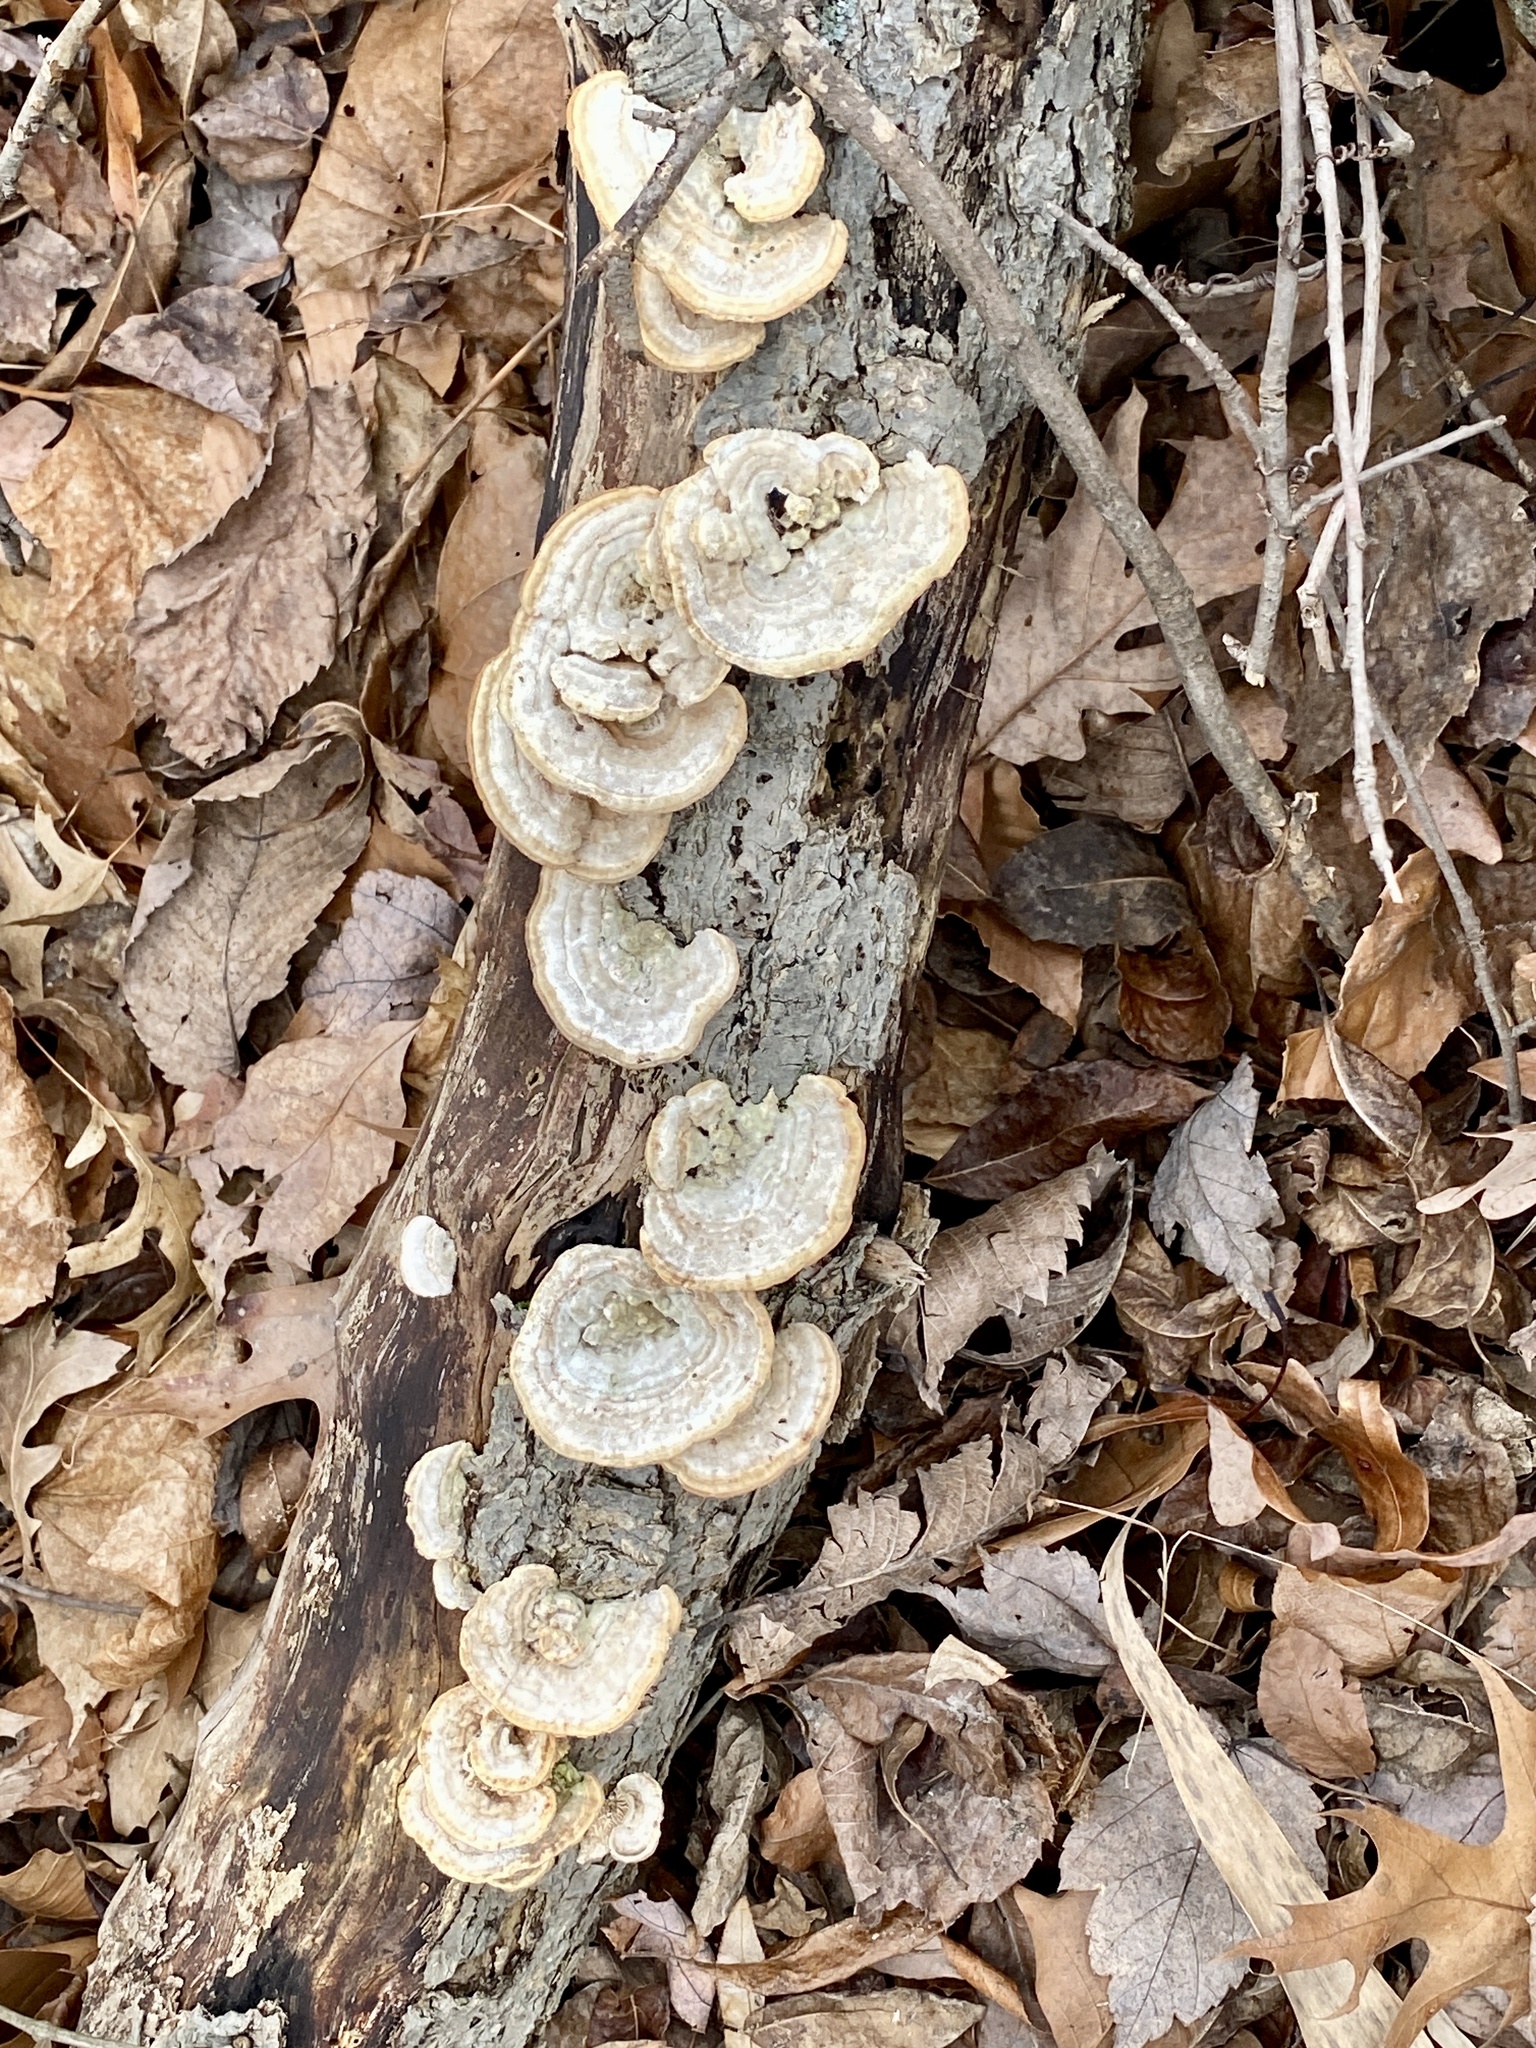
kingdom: Fungi
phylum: Basidiomycota
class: Agaricomycetes
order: Polyporales
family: Polyporaceae
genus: Lenzites
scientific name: Lenzites betulinus
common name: Birch mazegill
